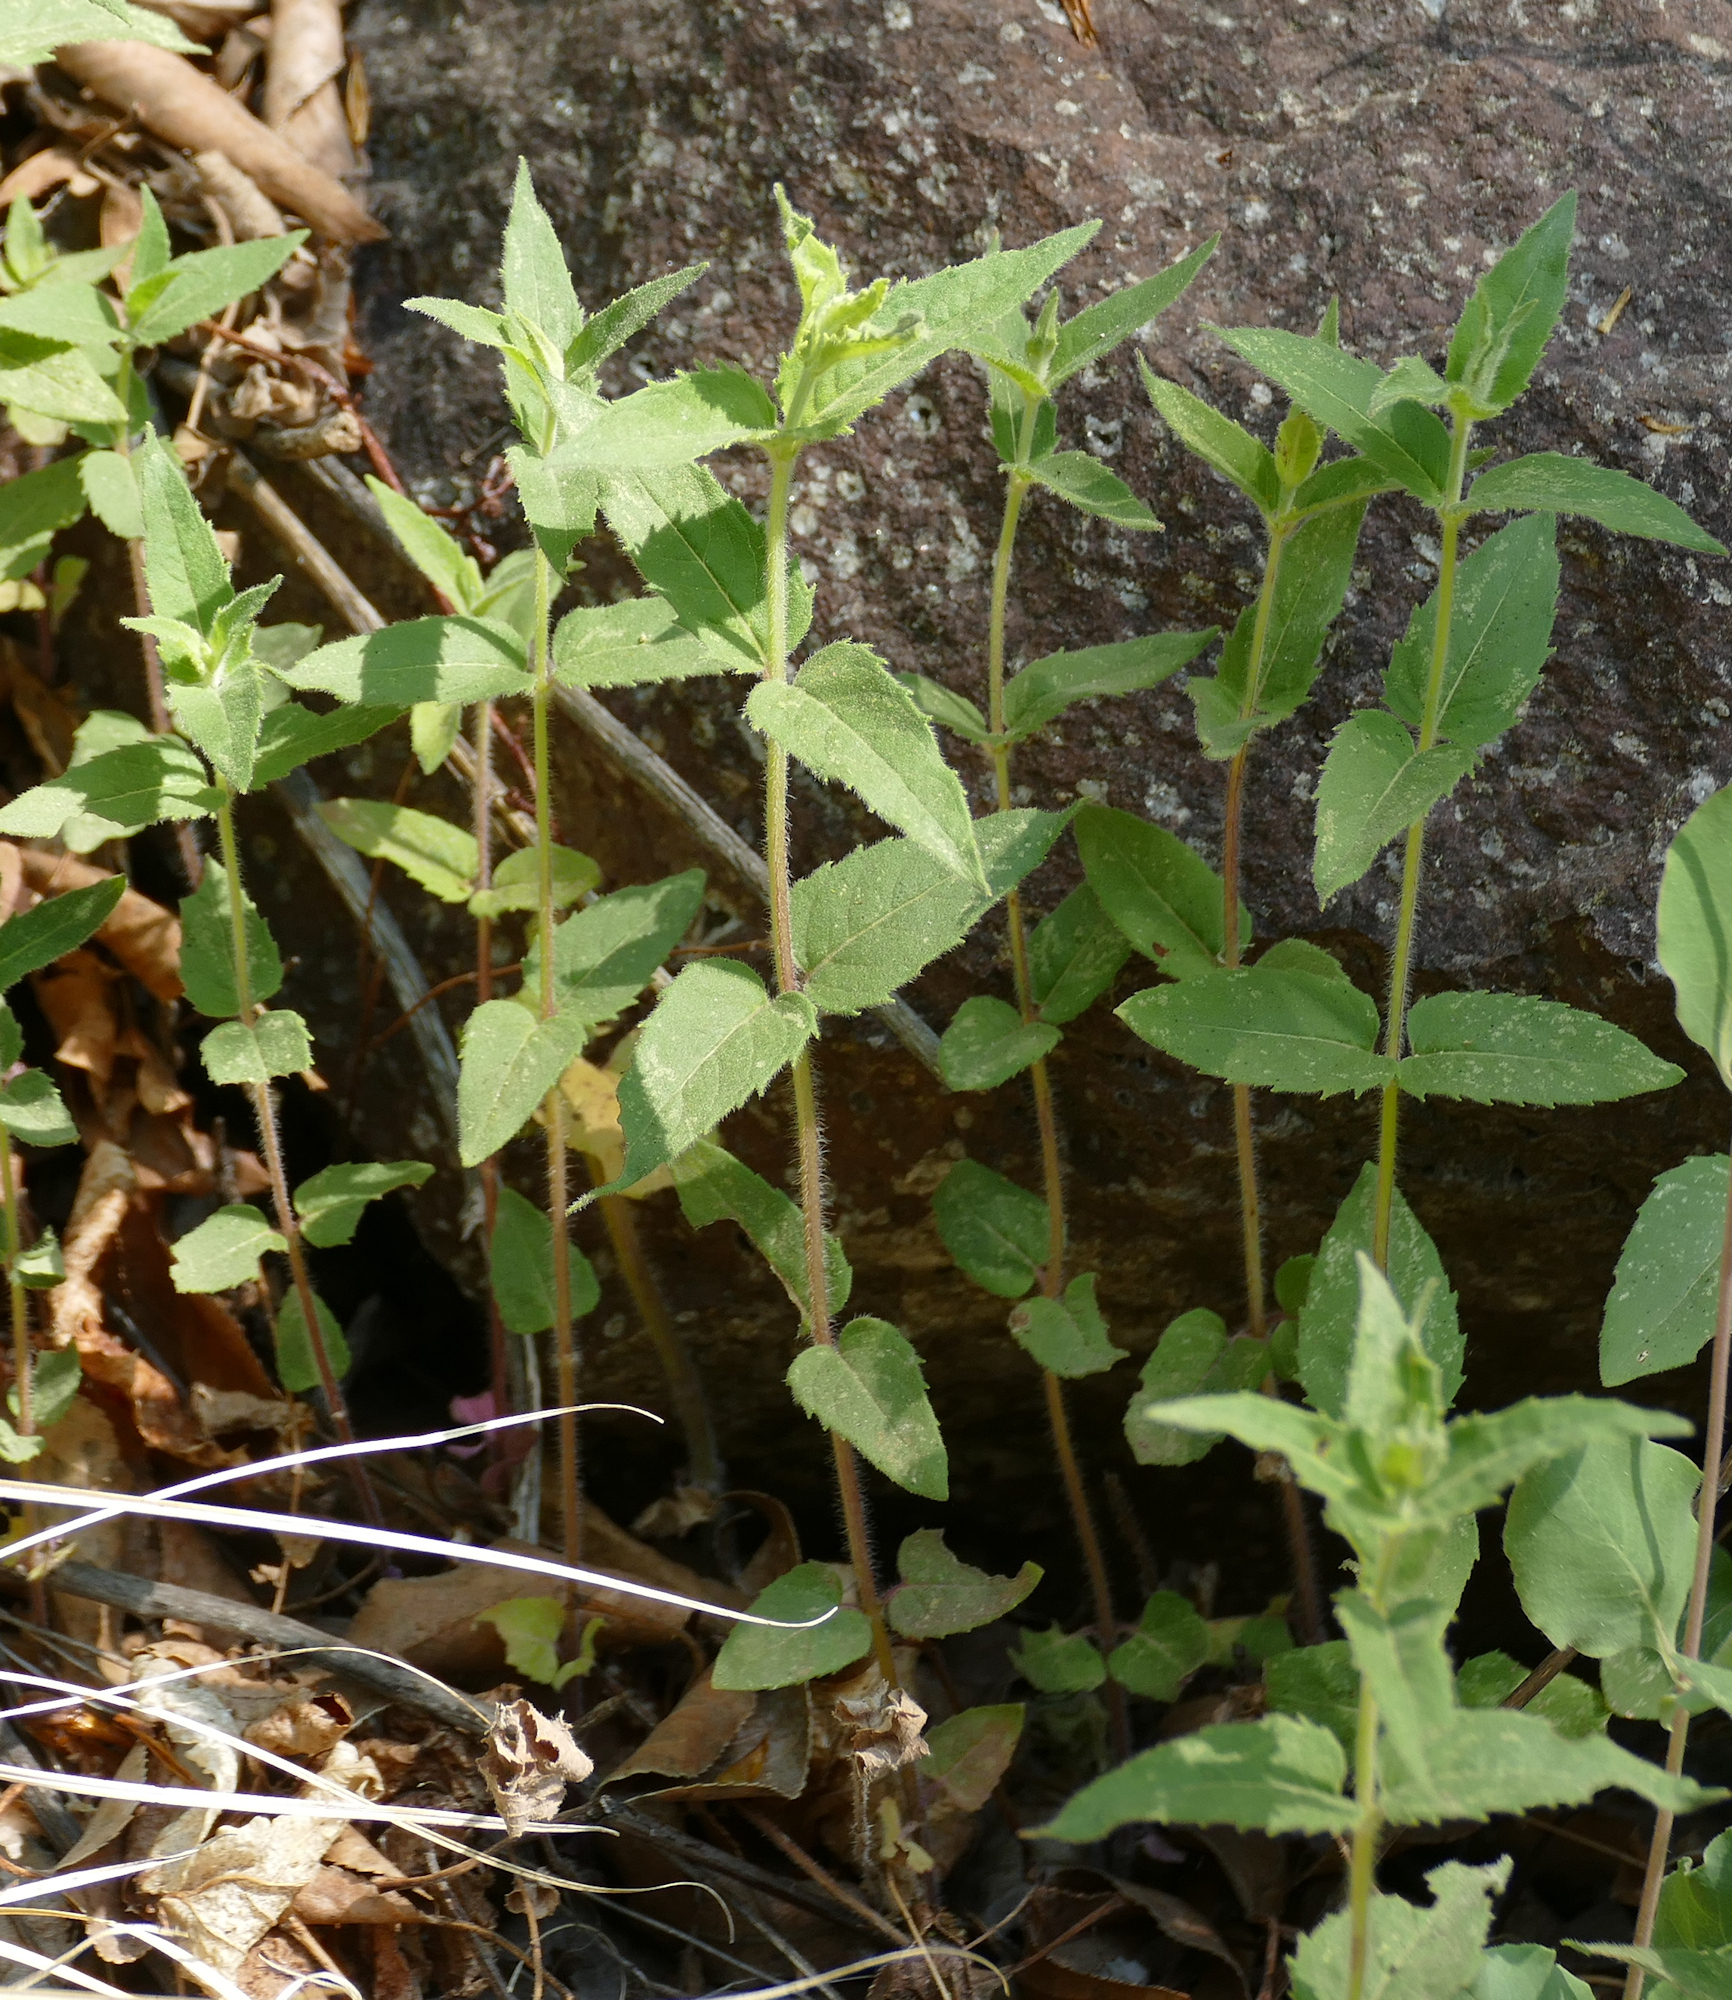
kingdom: Plantae
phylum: Tracheophyta
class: Magnoliopsida
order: Lamiales
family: Lamiaceae
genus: Monarda
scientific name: Monarda fistulosa
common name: Purple beebalm
